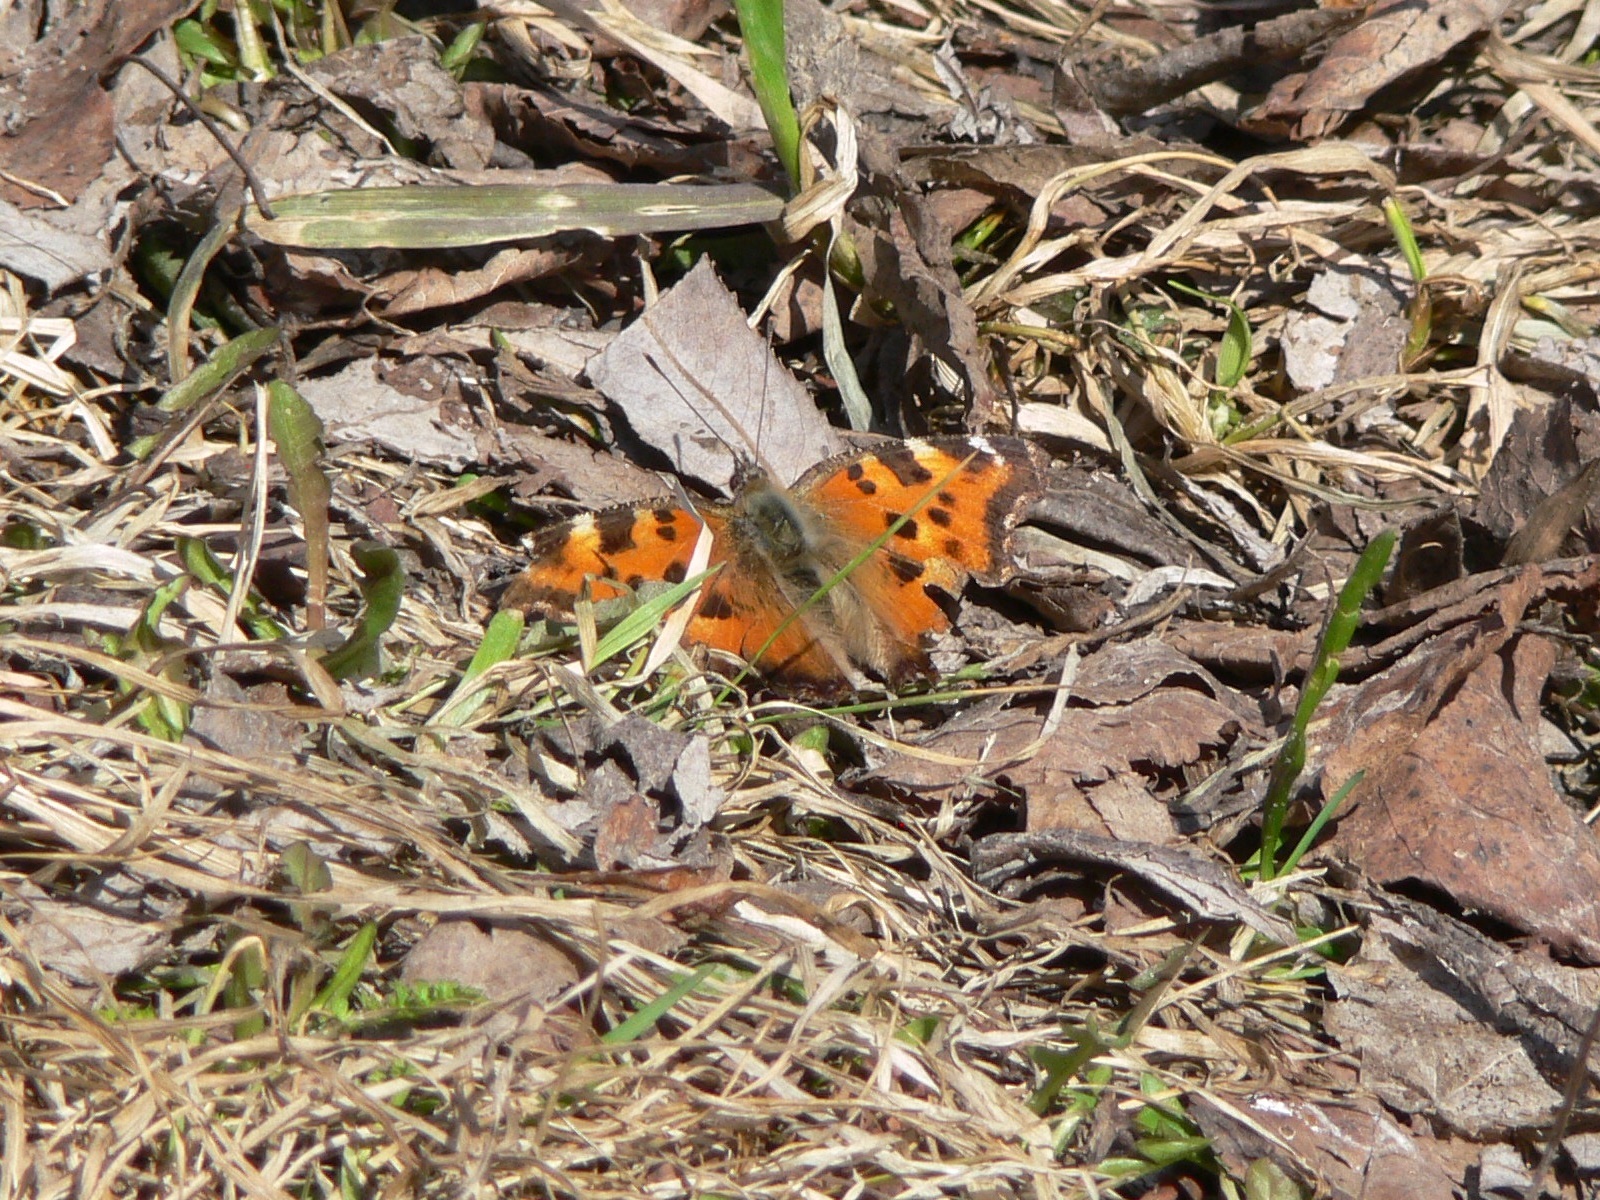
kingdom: Animalia
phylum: Arthropoda
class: Insecta
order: Lepidoptera
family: Nymphalidae
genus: Nymphalis
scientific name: Nymphalis xanthomelas
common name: Scarce tortoiseshell
